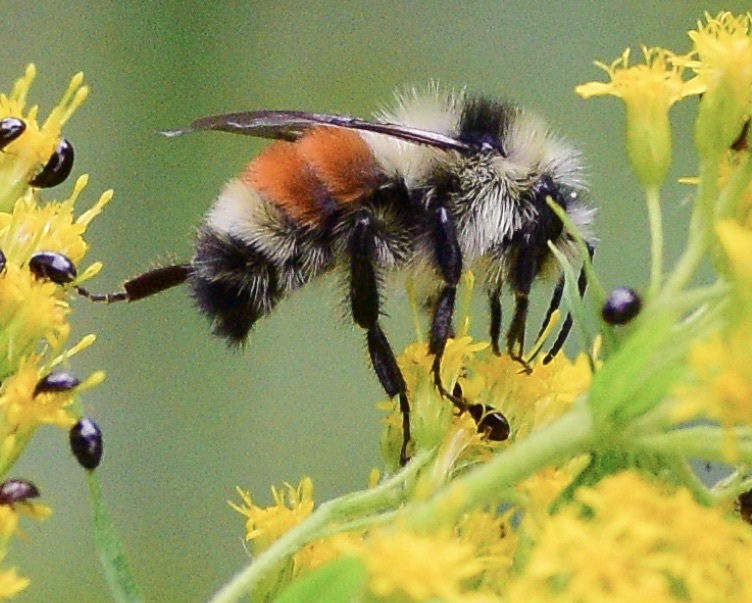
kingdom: Animalia
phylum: Arthropoda
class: Insecta
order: Hymenoptera
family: Apidae
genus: Bombus
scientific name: Bombus ternarius
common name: Tri-colored bumble bee
